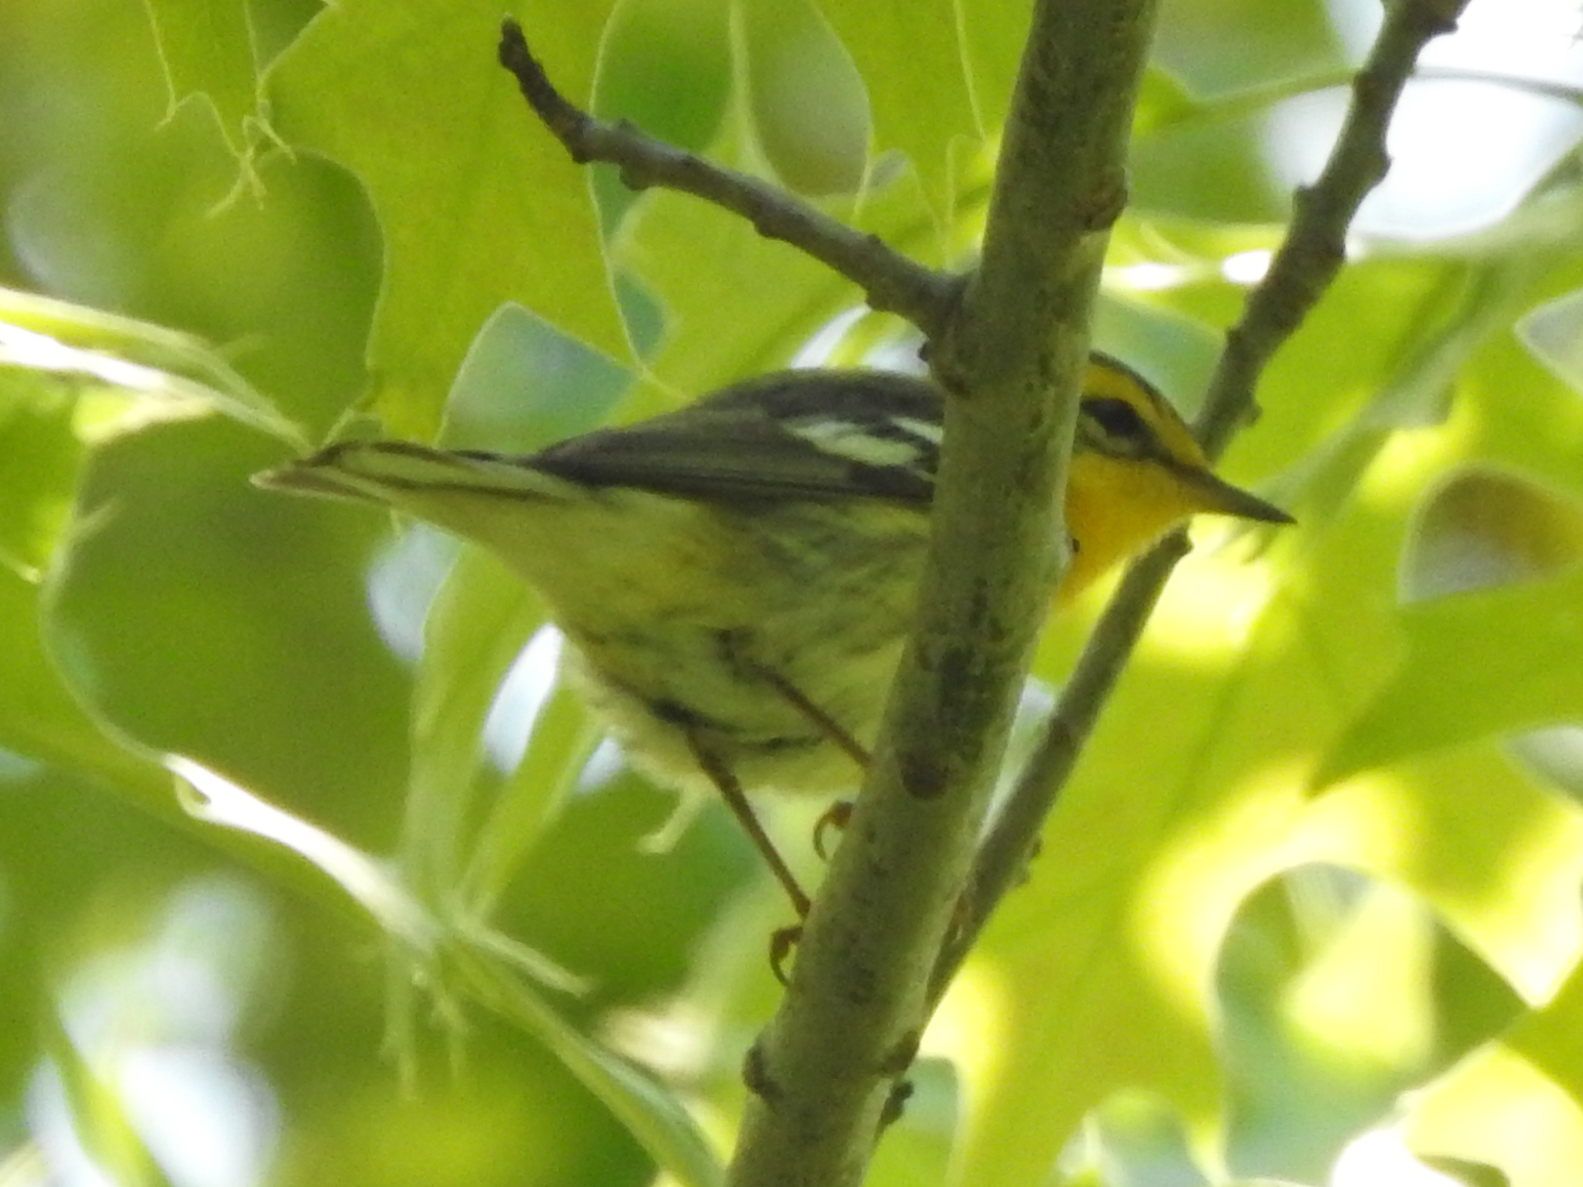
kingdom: Animalia
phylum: Chordata
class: Aves
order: Passeriformes
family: Parulidae
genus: Setophaga
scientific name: Setophaga fusca
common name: Blackburnian warbler
